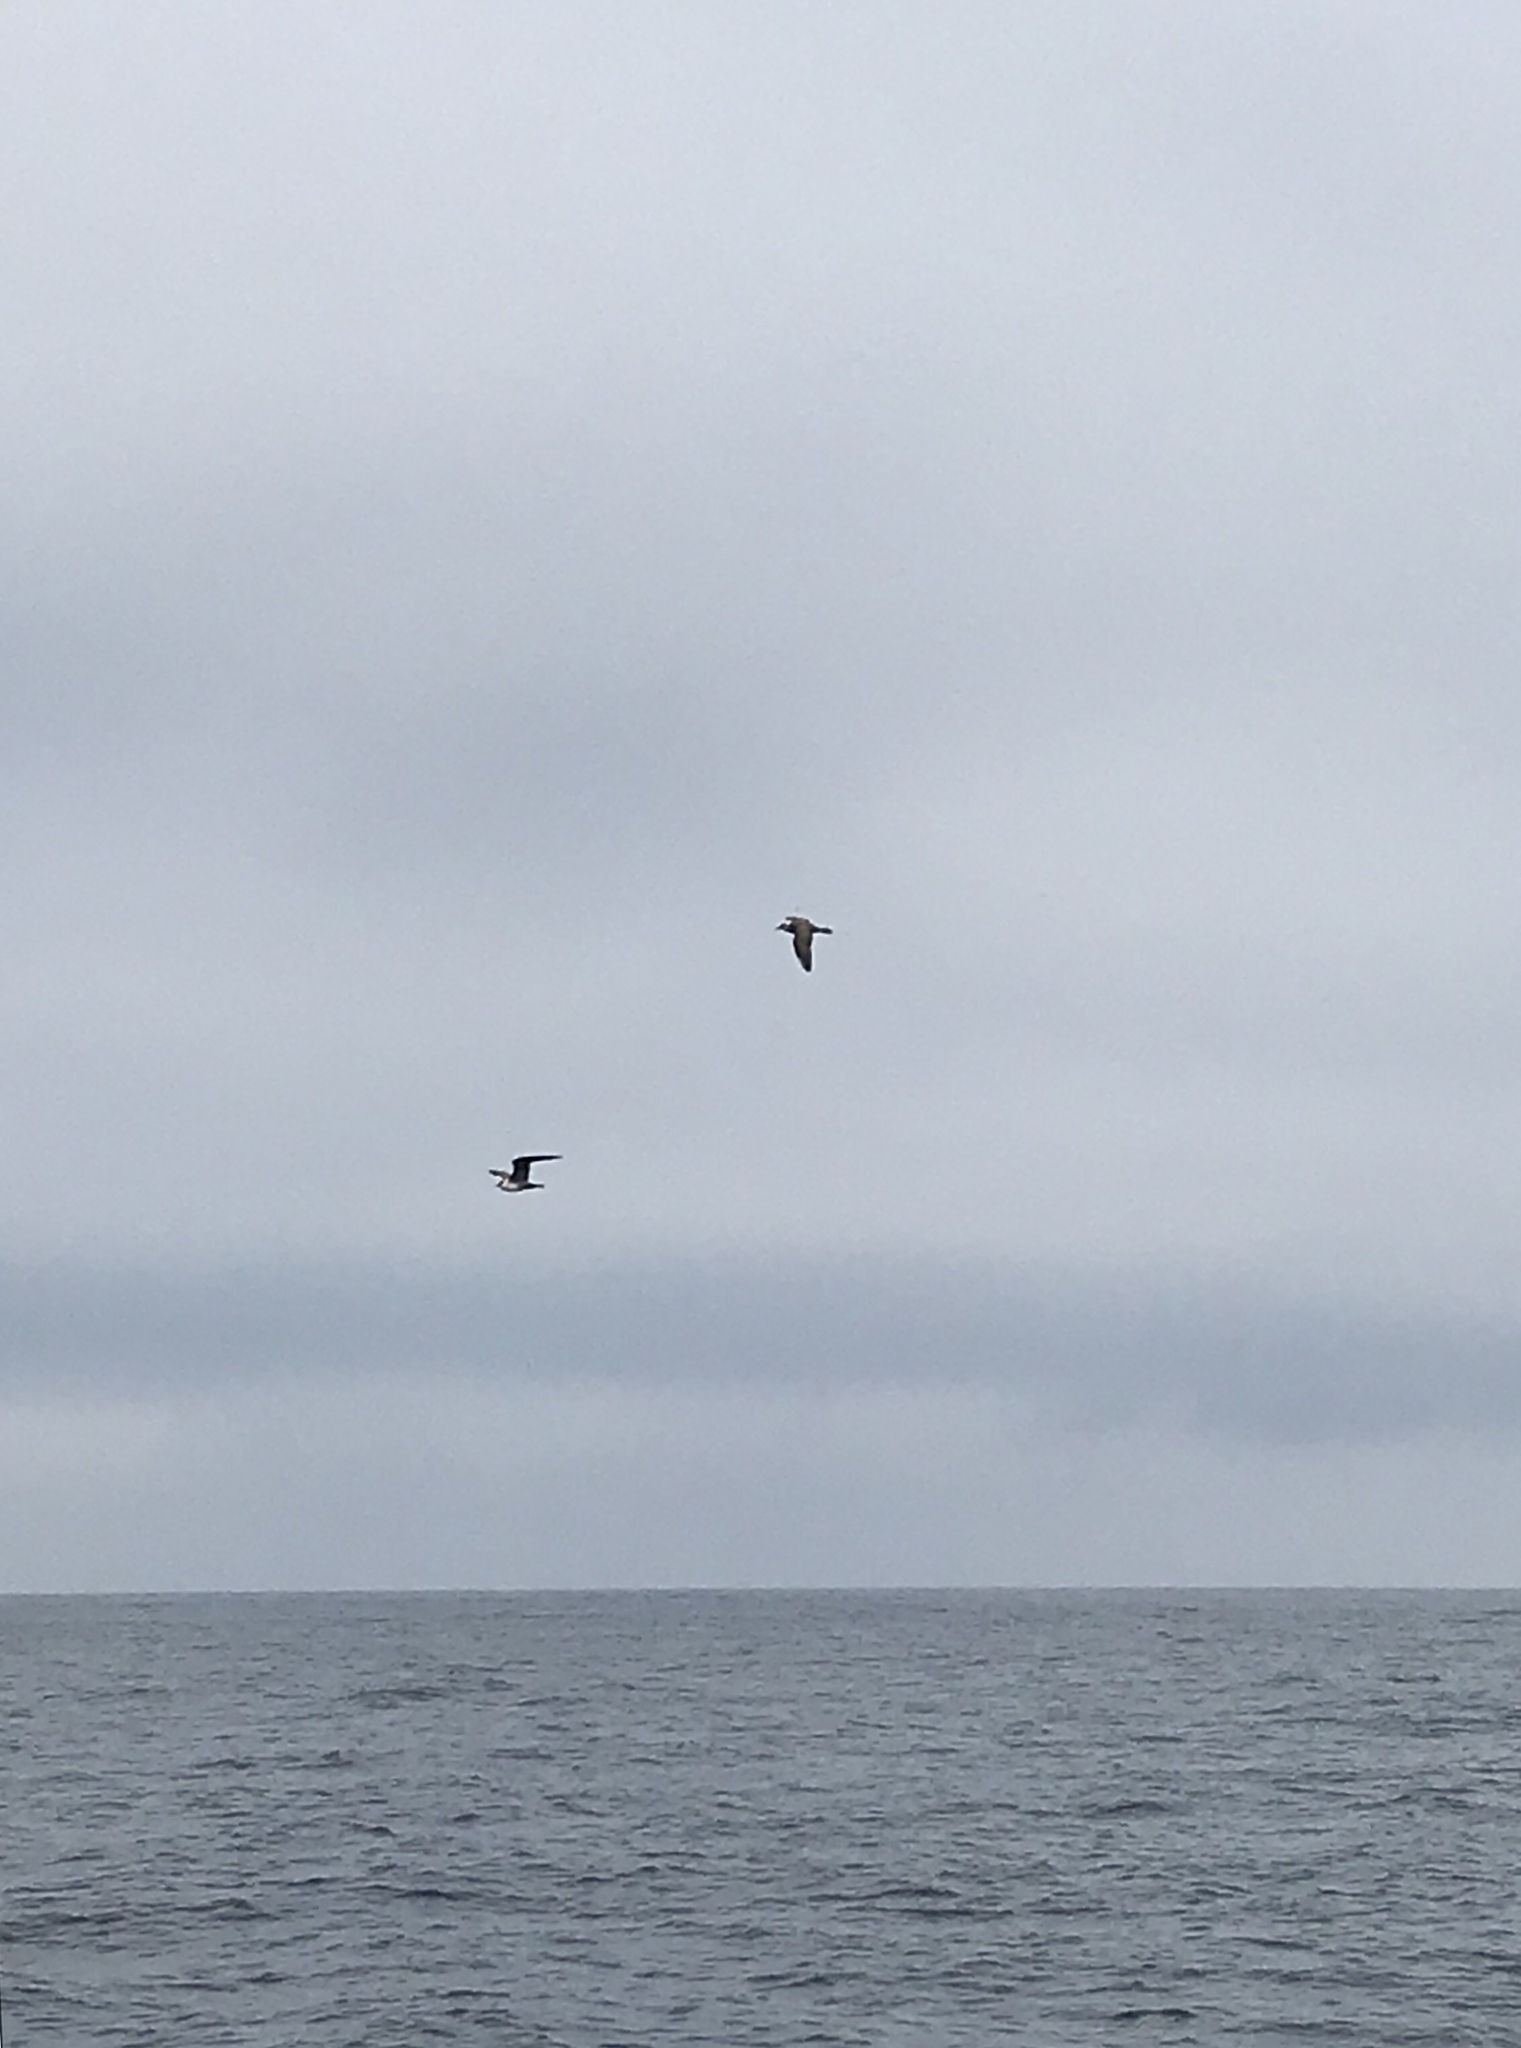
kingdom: Animalia
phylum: Chordata
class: Aves
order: Charadriiformes
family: Stercorariidae
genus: Stercorarius
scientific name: Stercorarius longicaudus
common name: Long-tailed jaeger
